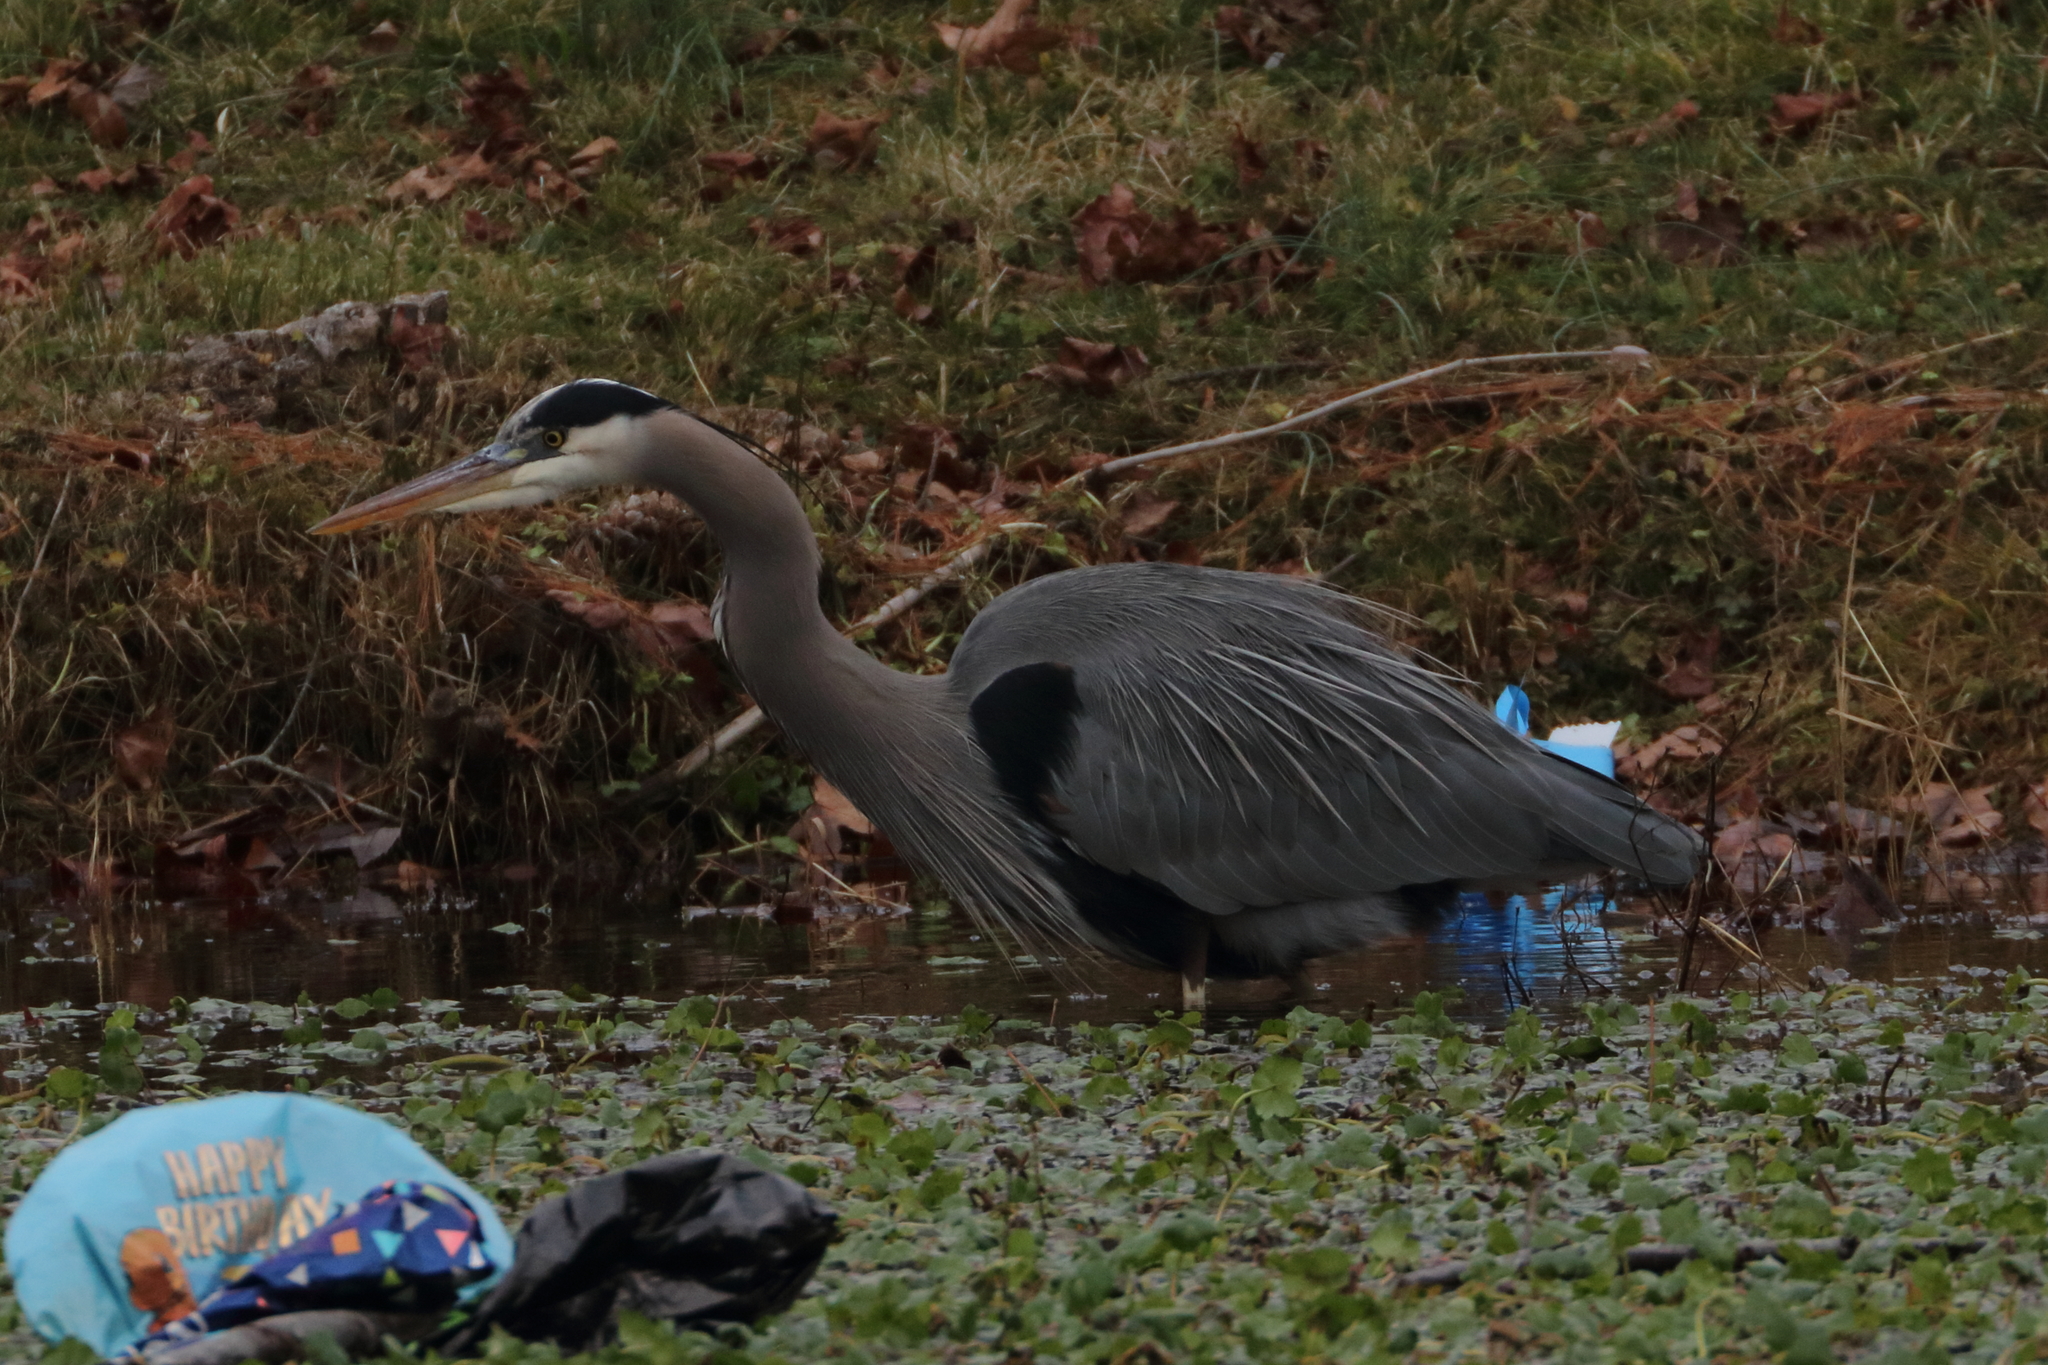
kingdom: Animalia
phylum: Chordata
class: Aves
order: Pelecaniformes
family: Ardeidae
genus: Ardea
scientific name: Ardea herodias
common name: Great blue heron
